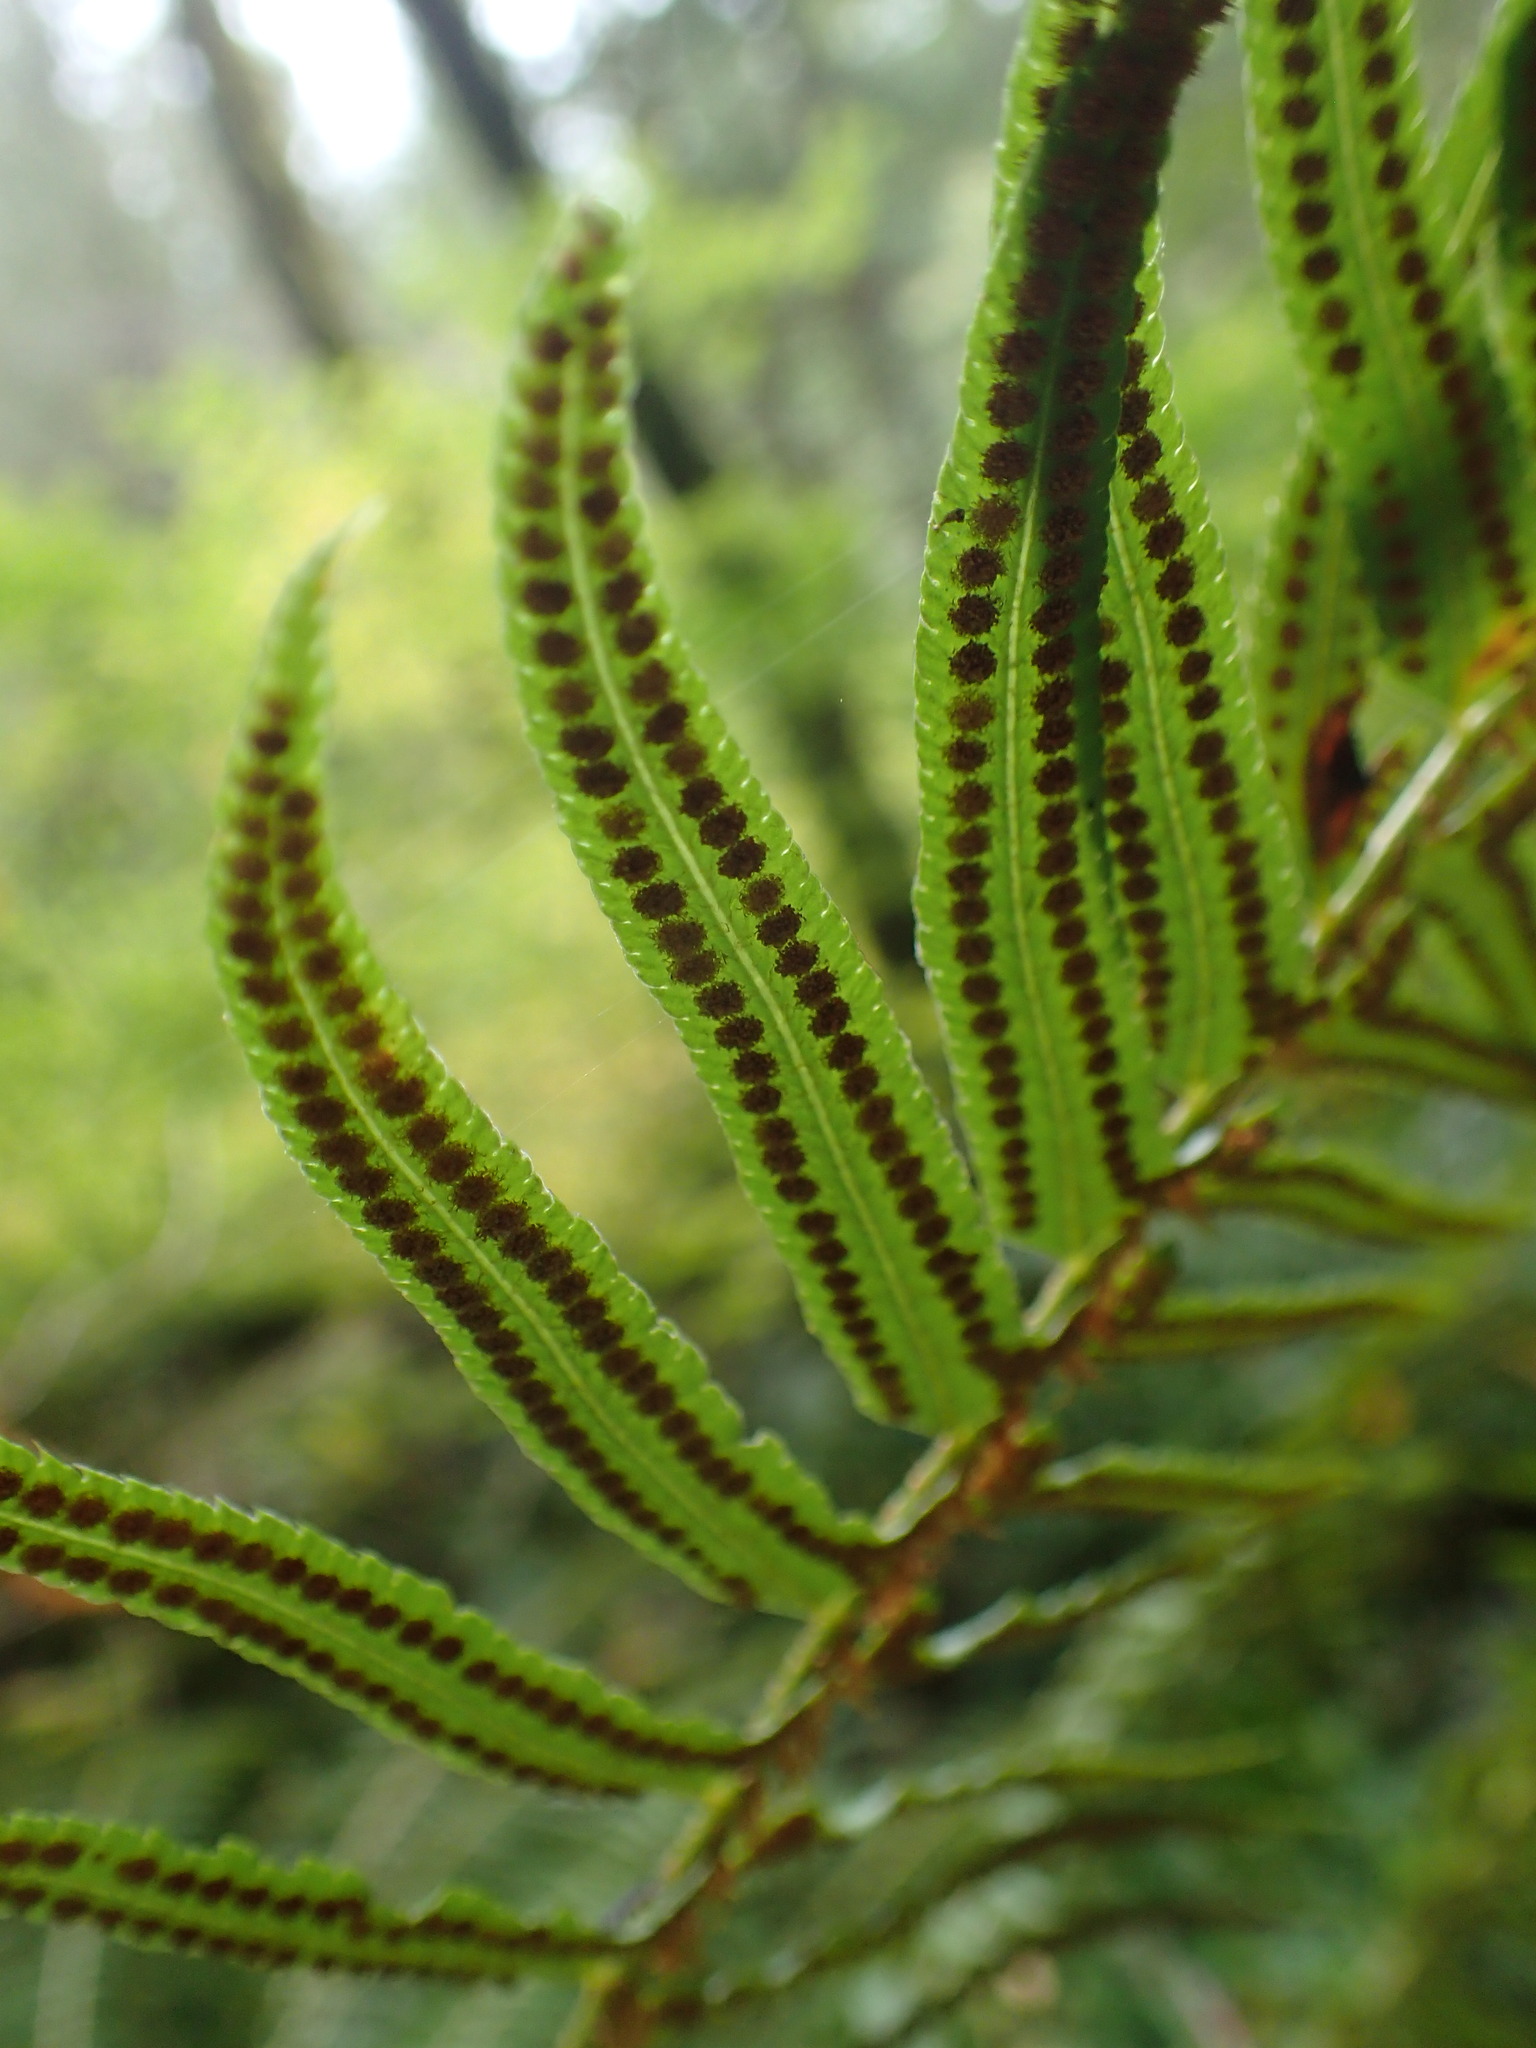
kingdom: Plantae
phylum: Tracheophyta
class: Polypodiopsida
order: Polypodiales
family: Dryopteridaceae
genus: Polystichum
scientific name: Polystichum munitum
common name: Western sword-fern
